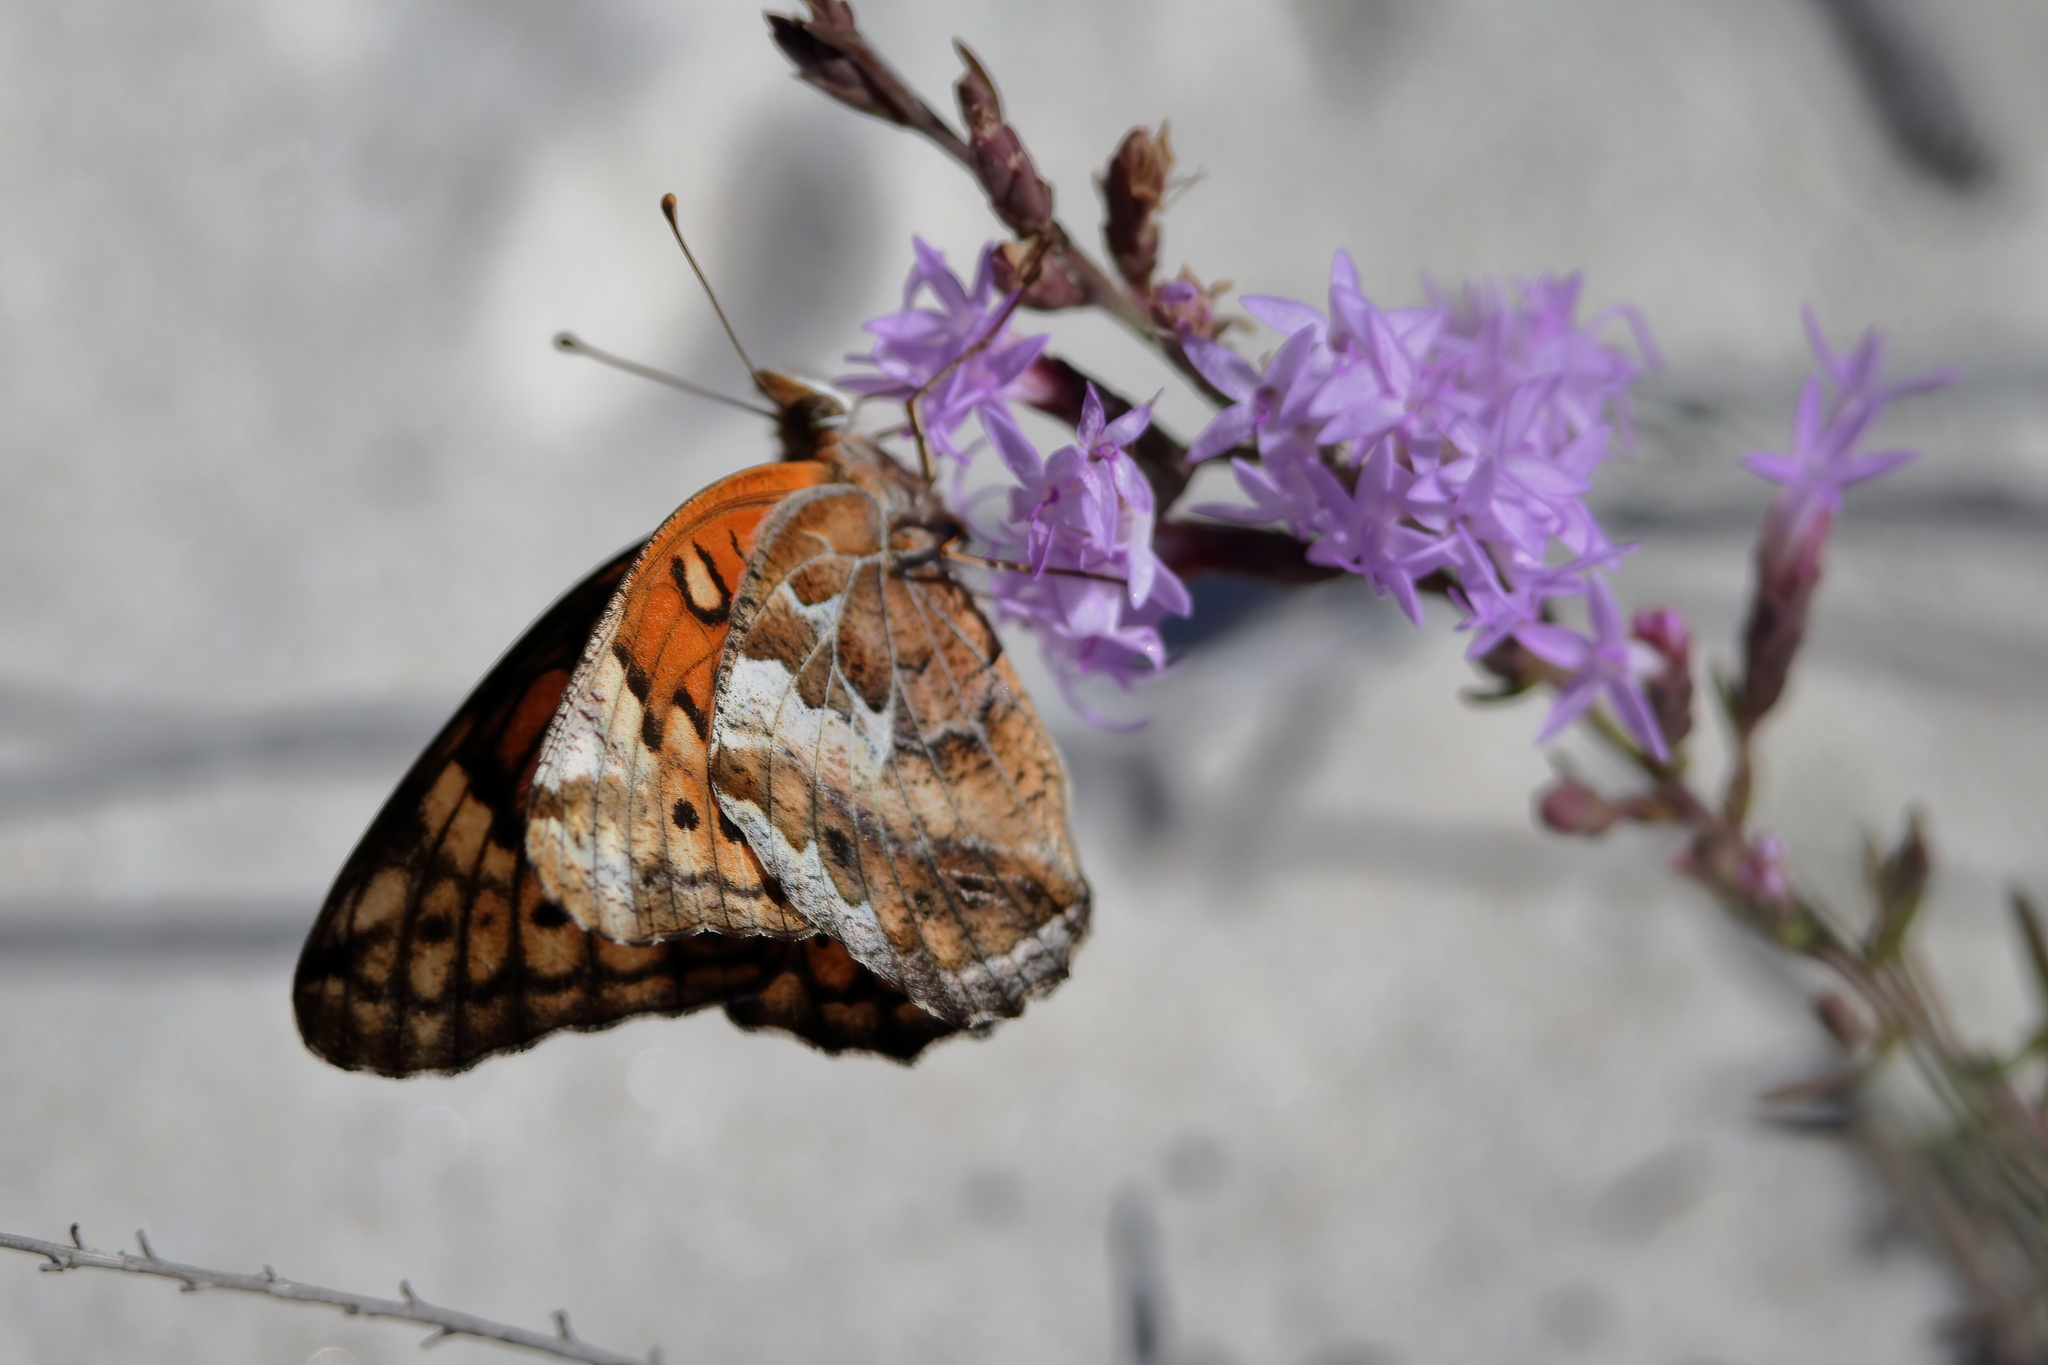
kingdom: Animalia
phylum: Arthropoda
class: Insecta
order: Lepidoptera
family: Nymphalidae
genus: Euptoieta
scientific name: Euptoieta claudia
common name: Variegated fritillary
